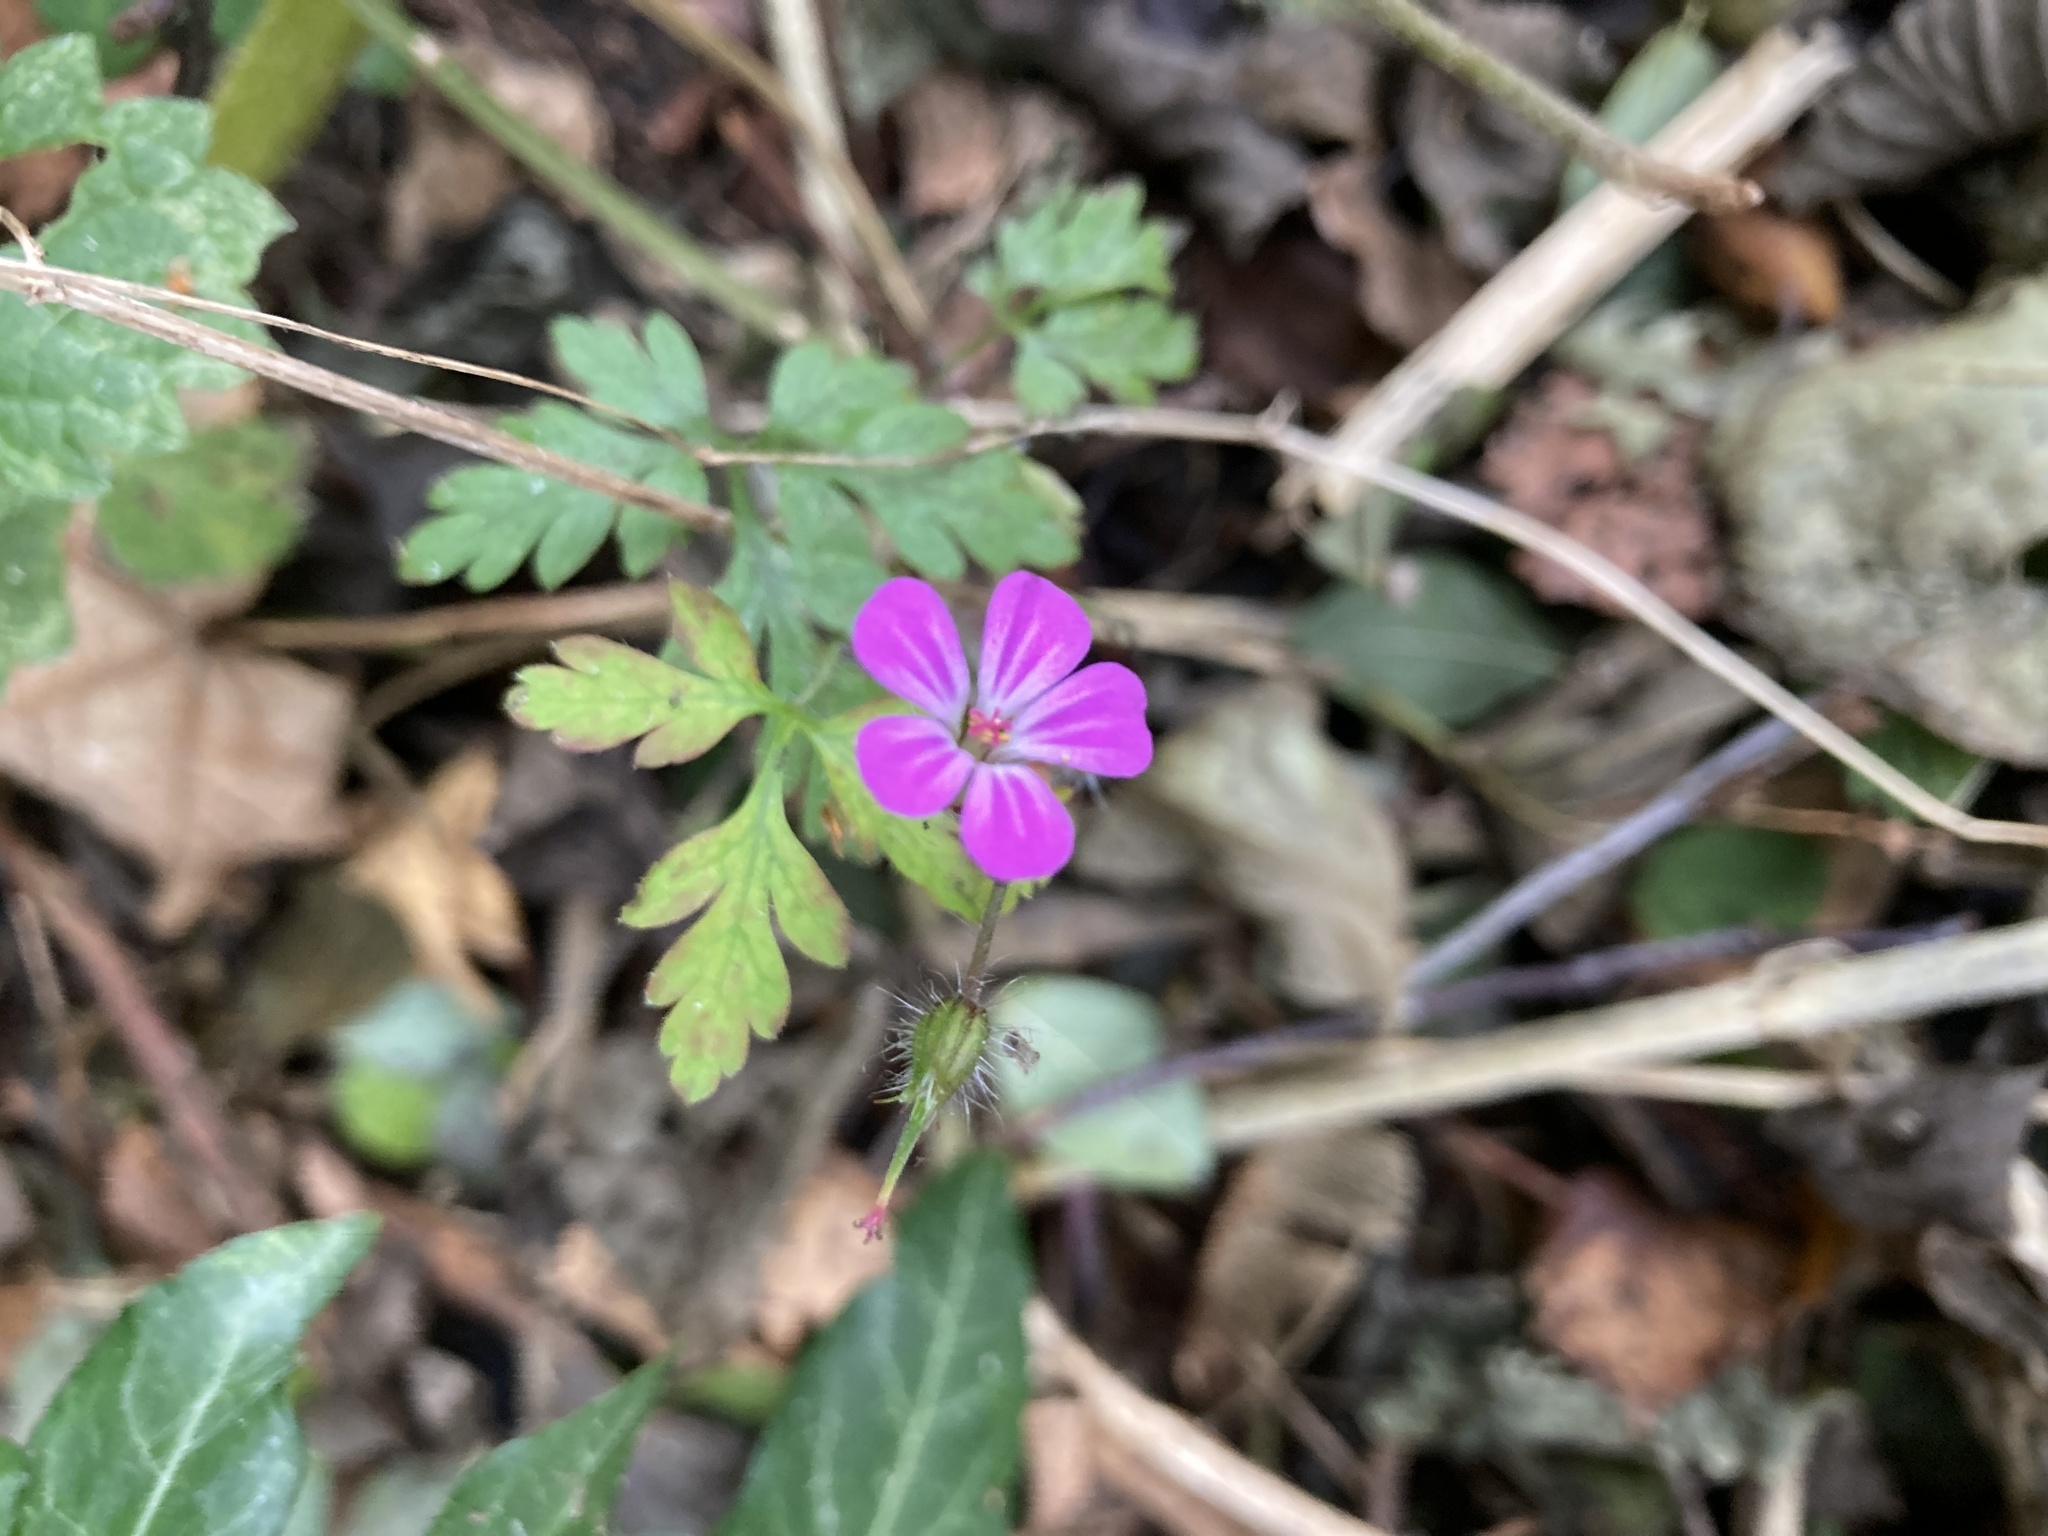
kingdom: Plantae
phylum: Tracheophyta
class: Magnoliopsida
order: Geraniales
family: Geraniaceae
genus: Geranium
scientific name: Geranium robertianum
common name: Herb-robert
